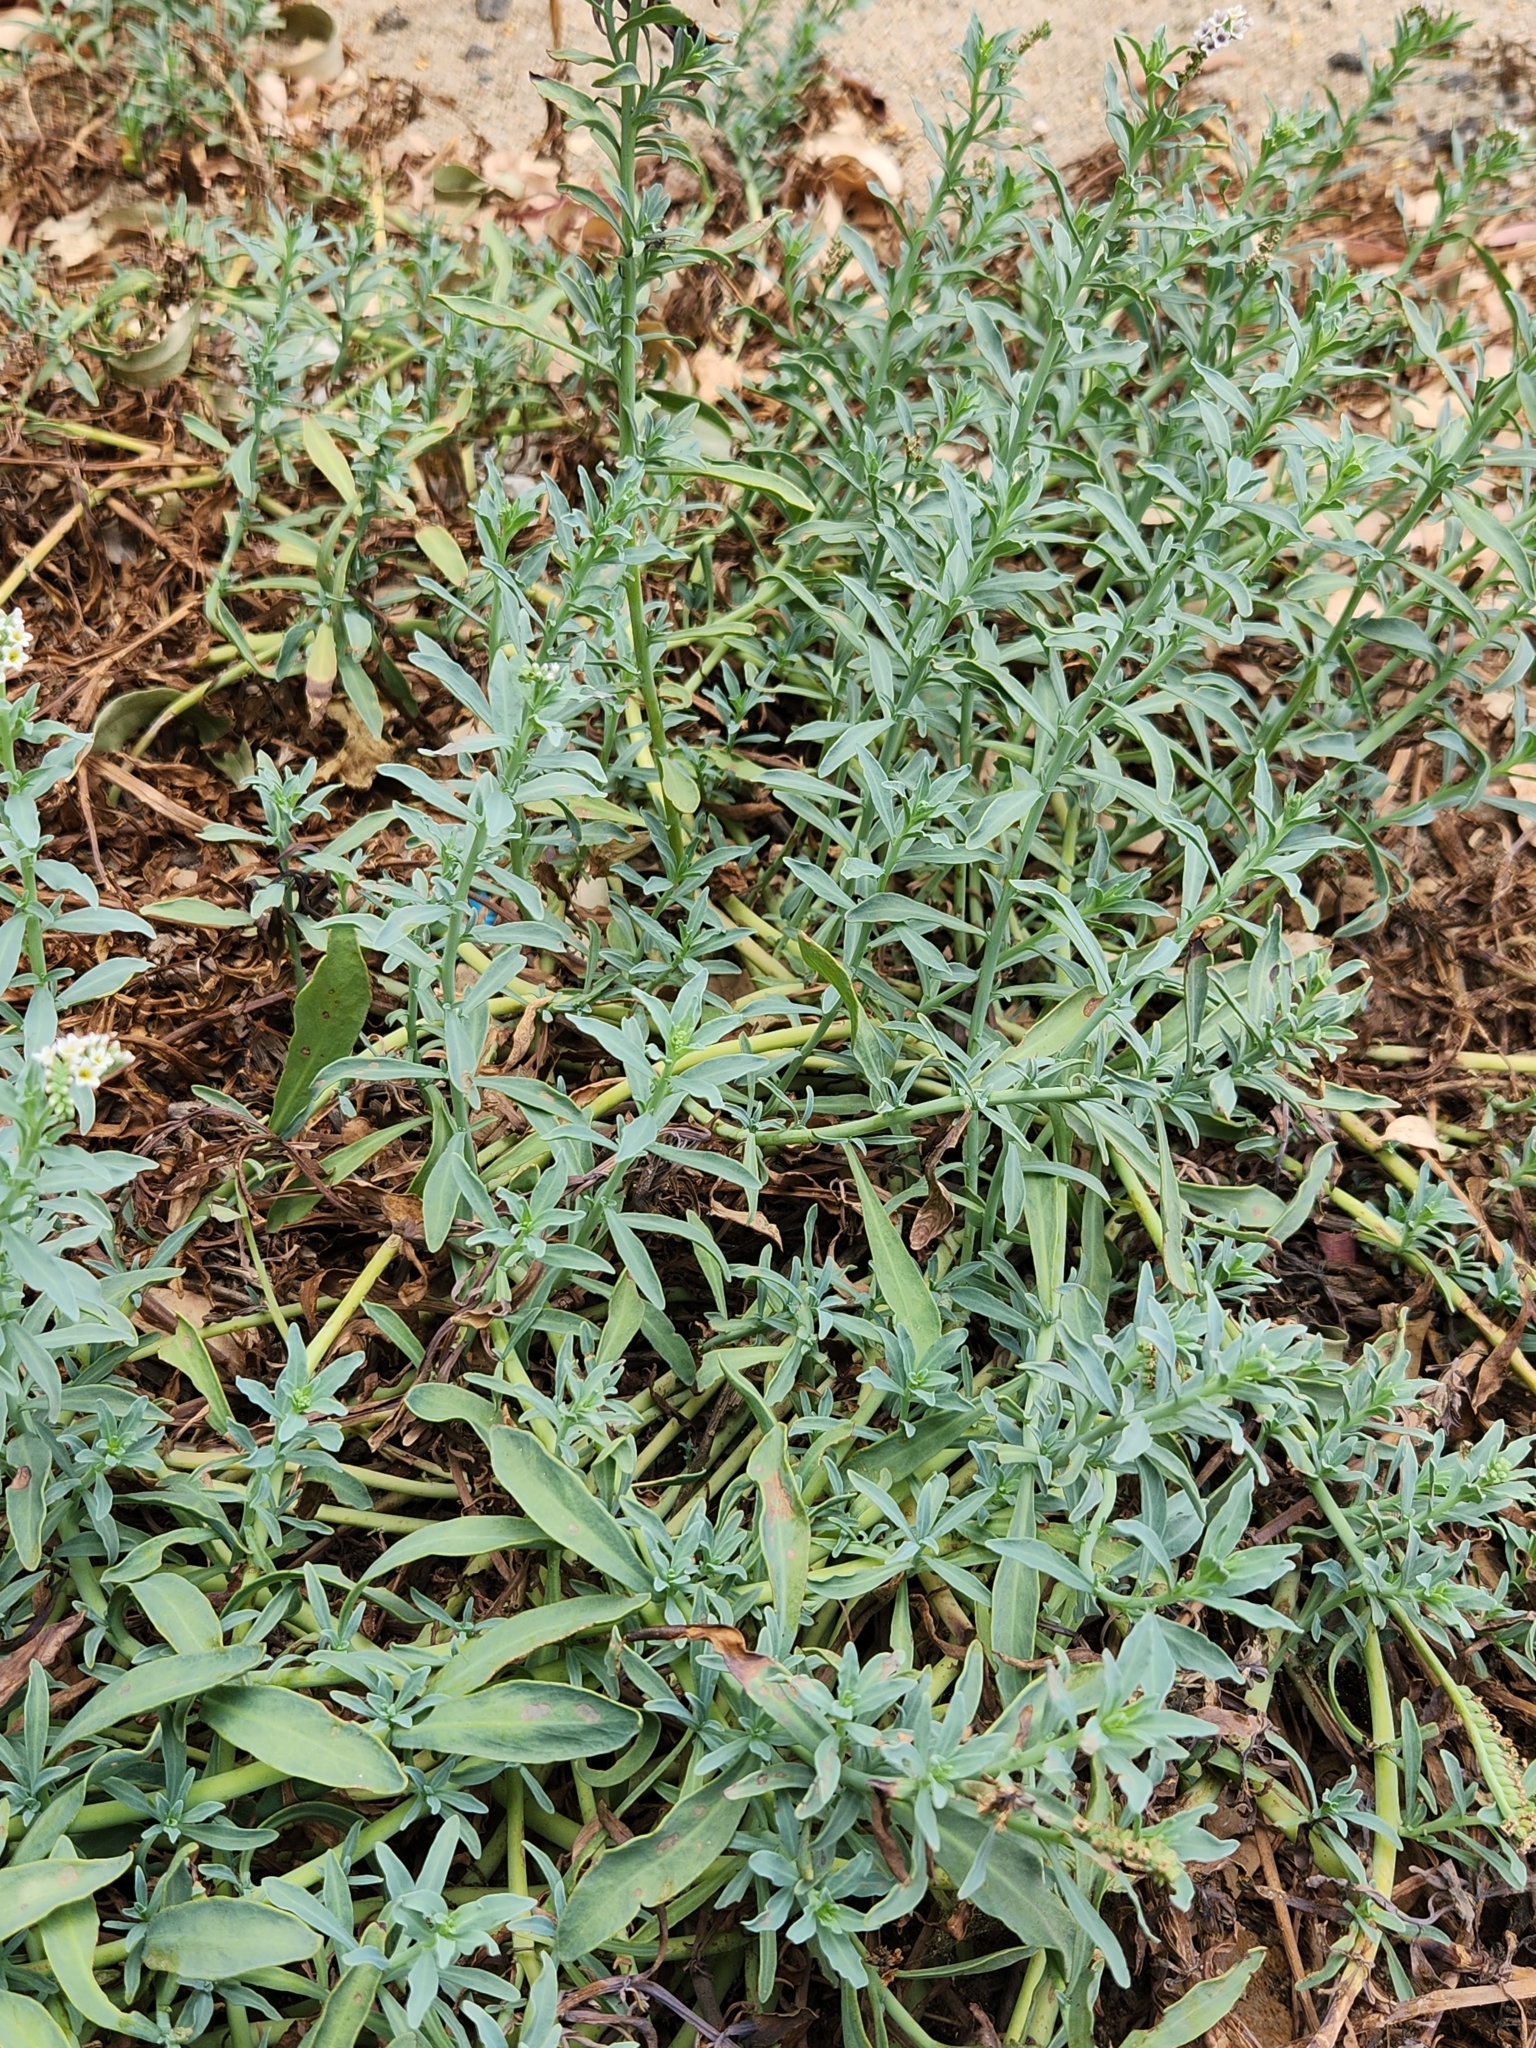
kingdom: Plantae
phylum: Tracheophyta
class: Magnoliopsida
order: Boraginales
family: Heliotropiaceae
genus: Heliotropium
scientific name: Heliotropium curassavicum
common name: Seaside heliotrope
